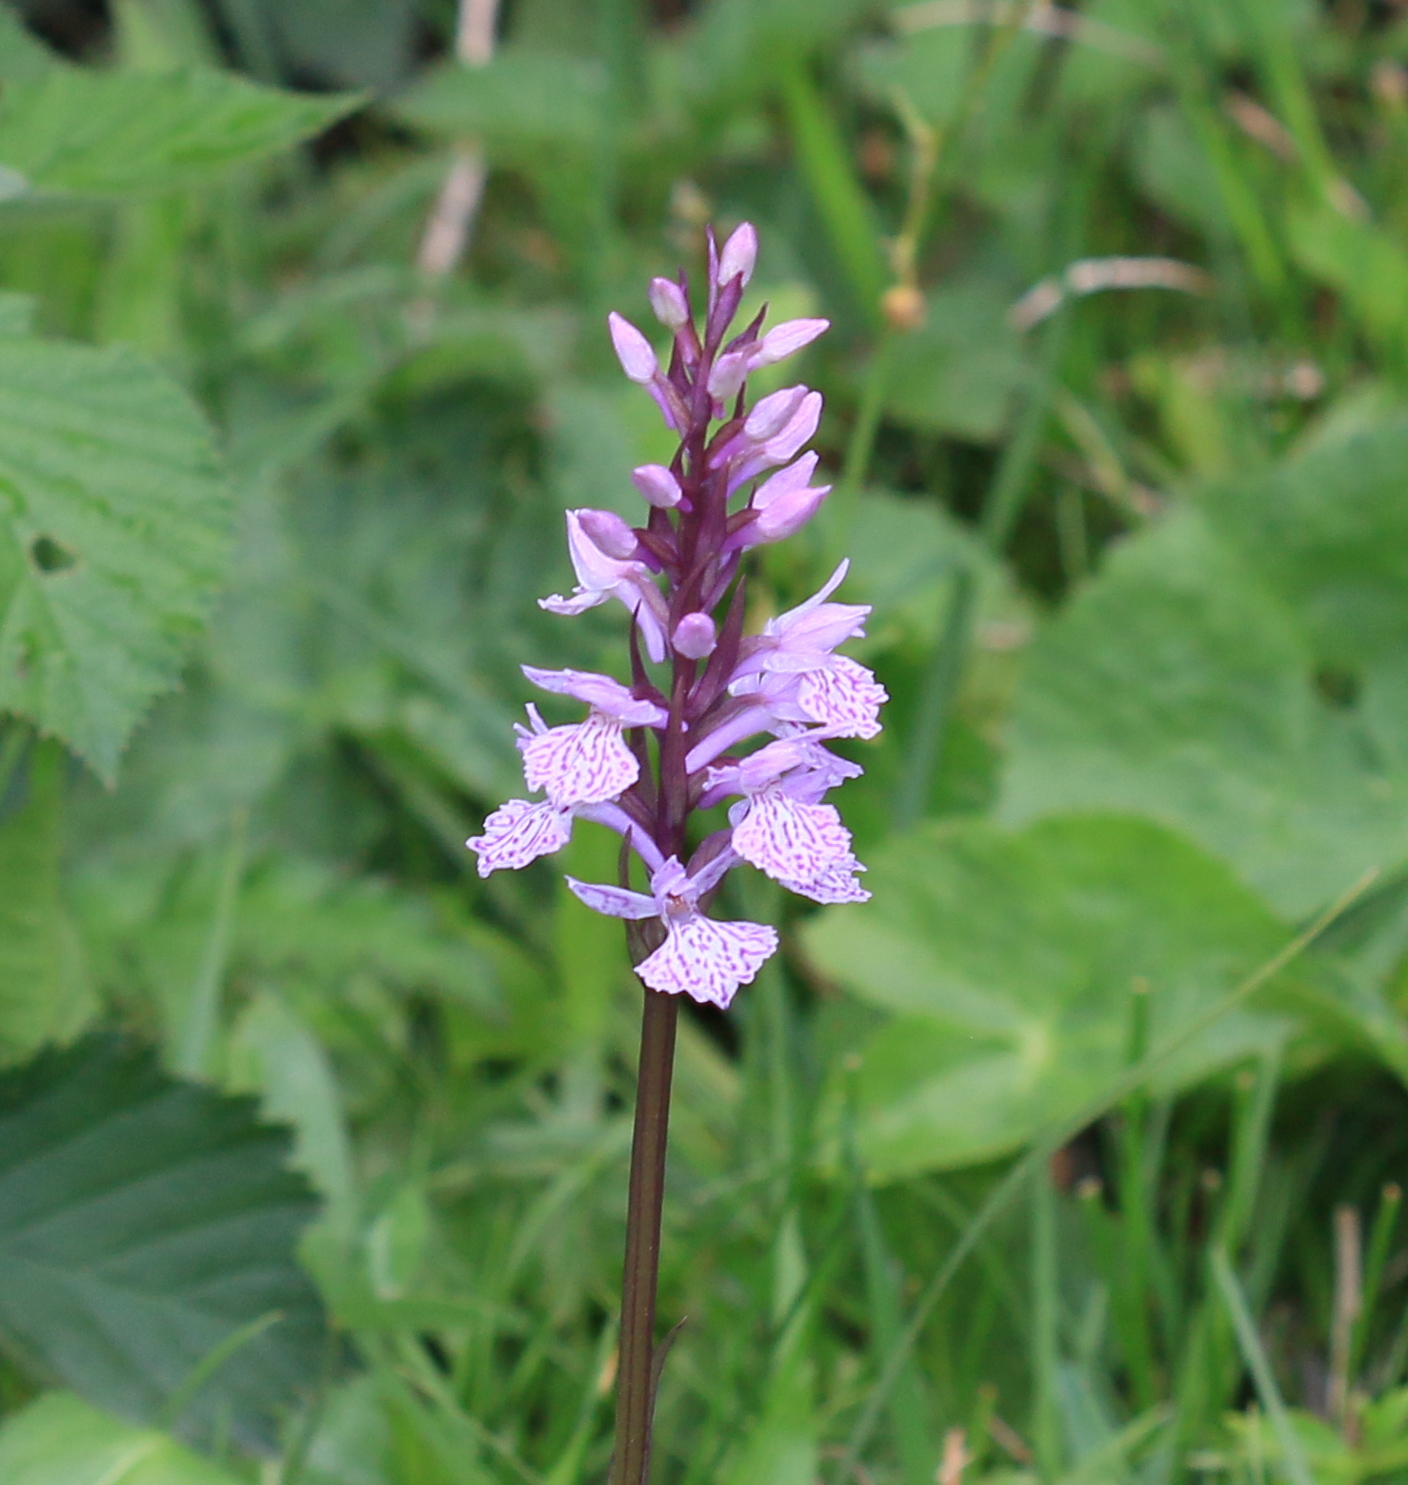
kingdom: Plantae
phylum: Tracheophyta
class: Liliopsida
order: Asparagales
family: Orchidaceae
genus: Dactylorhiza
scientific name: Dactylorhiza maculata
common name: Heath spotted-orchid
